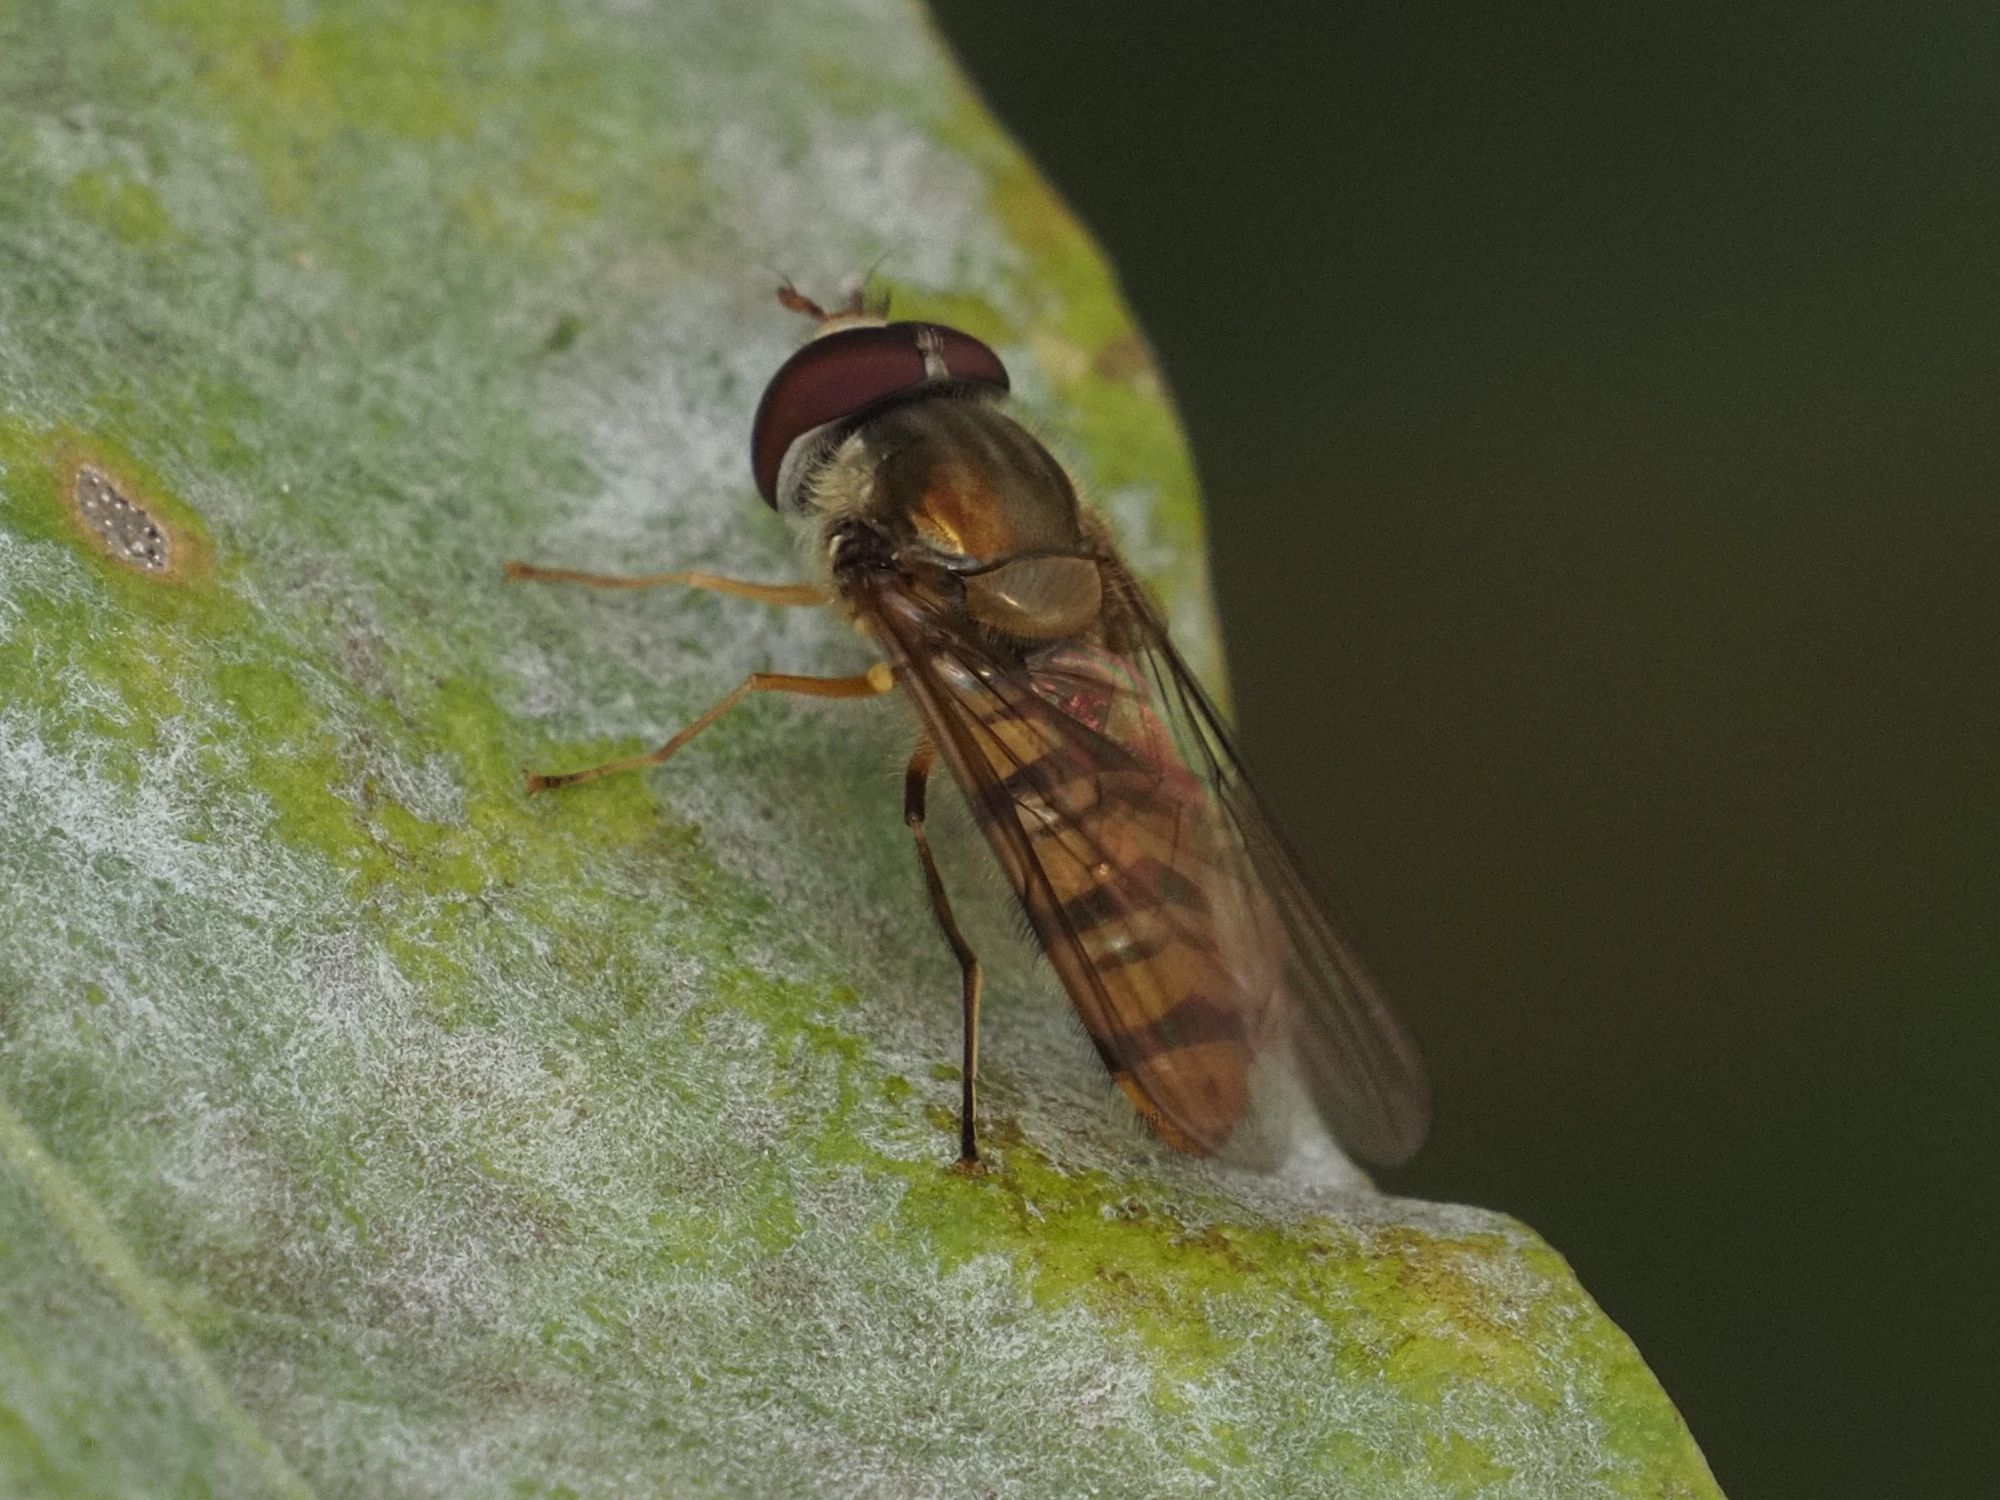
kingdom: Animalia
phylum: Arthropoda
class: Insecta
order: Diptera
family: Syrphidae
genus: Episyrphus
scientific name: Episyrphus balteatus
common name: Marmalade hoverfly
